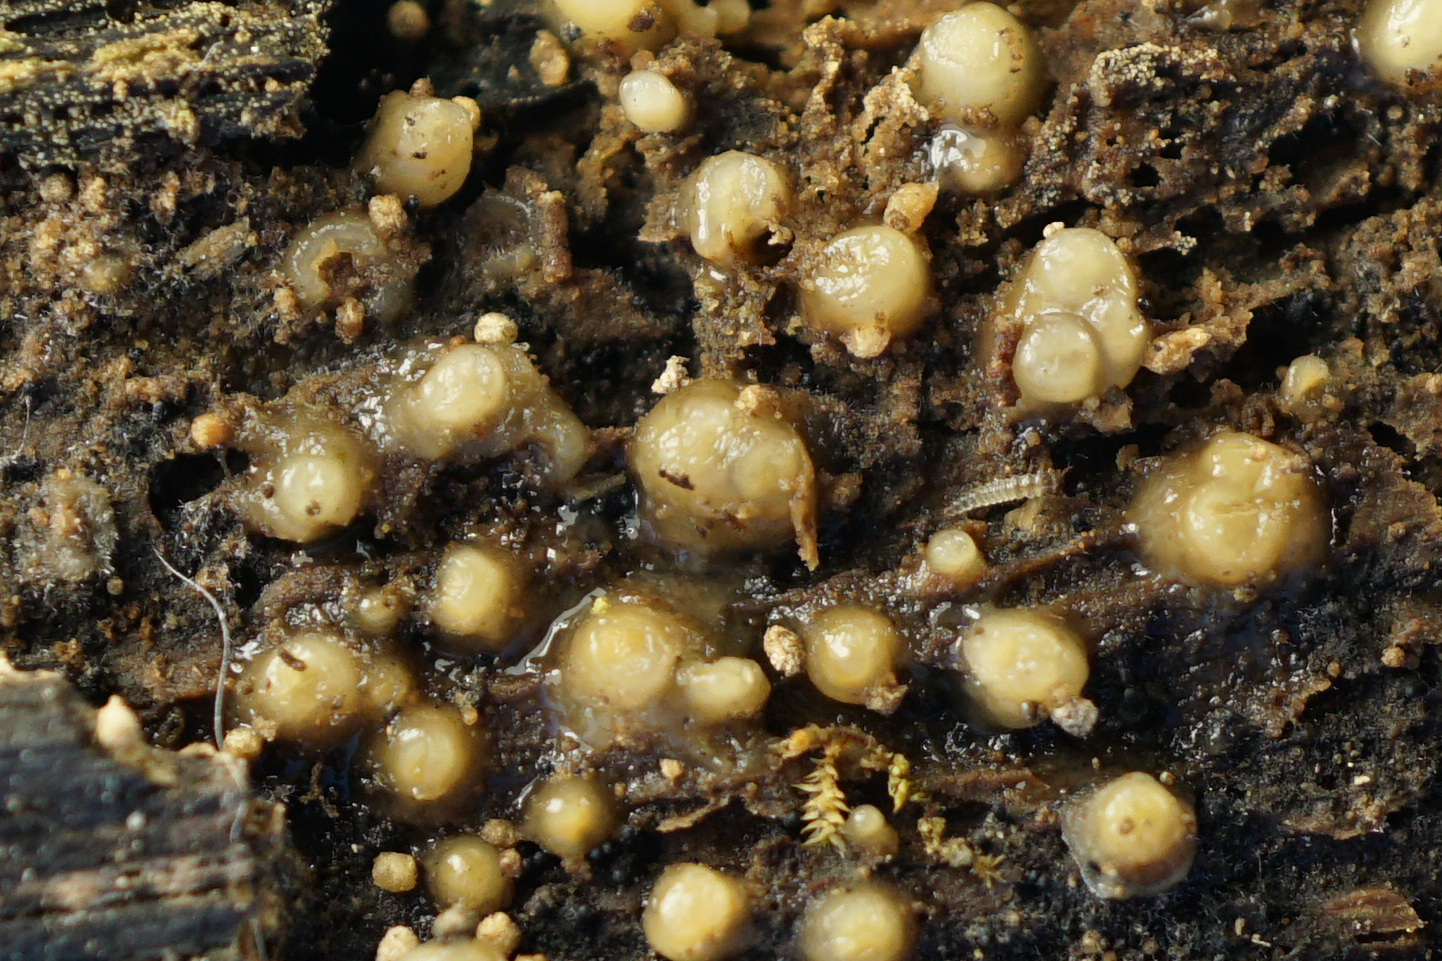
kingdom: Fungi
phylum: Basidiomycota
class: Atractiellomycetes
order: Atractiellales
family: Phleogenaceae
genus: Helicogloea
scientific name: Helicogloea compressa
